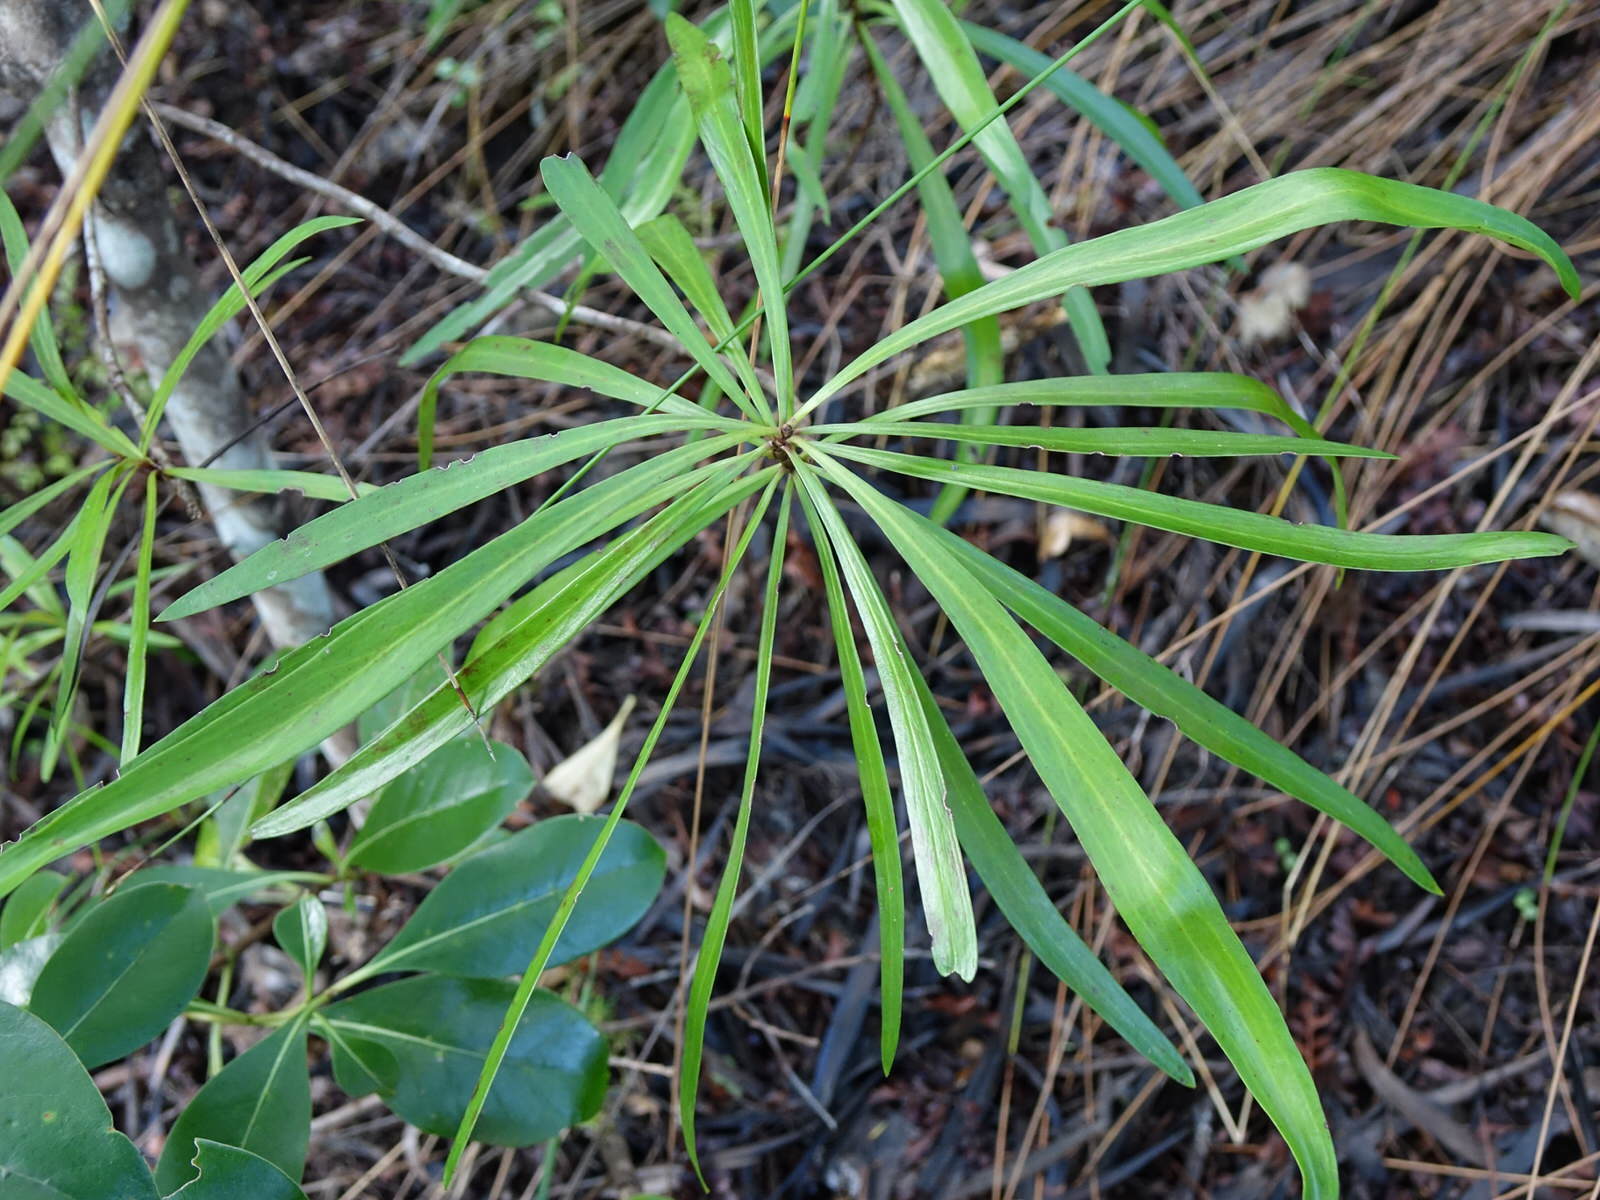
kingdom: Plantae
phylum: Tracheophyta
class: Magnoliopsida
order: Proteales
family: Proteaceae
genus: Toronia
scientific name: Toronia toru
